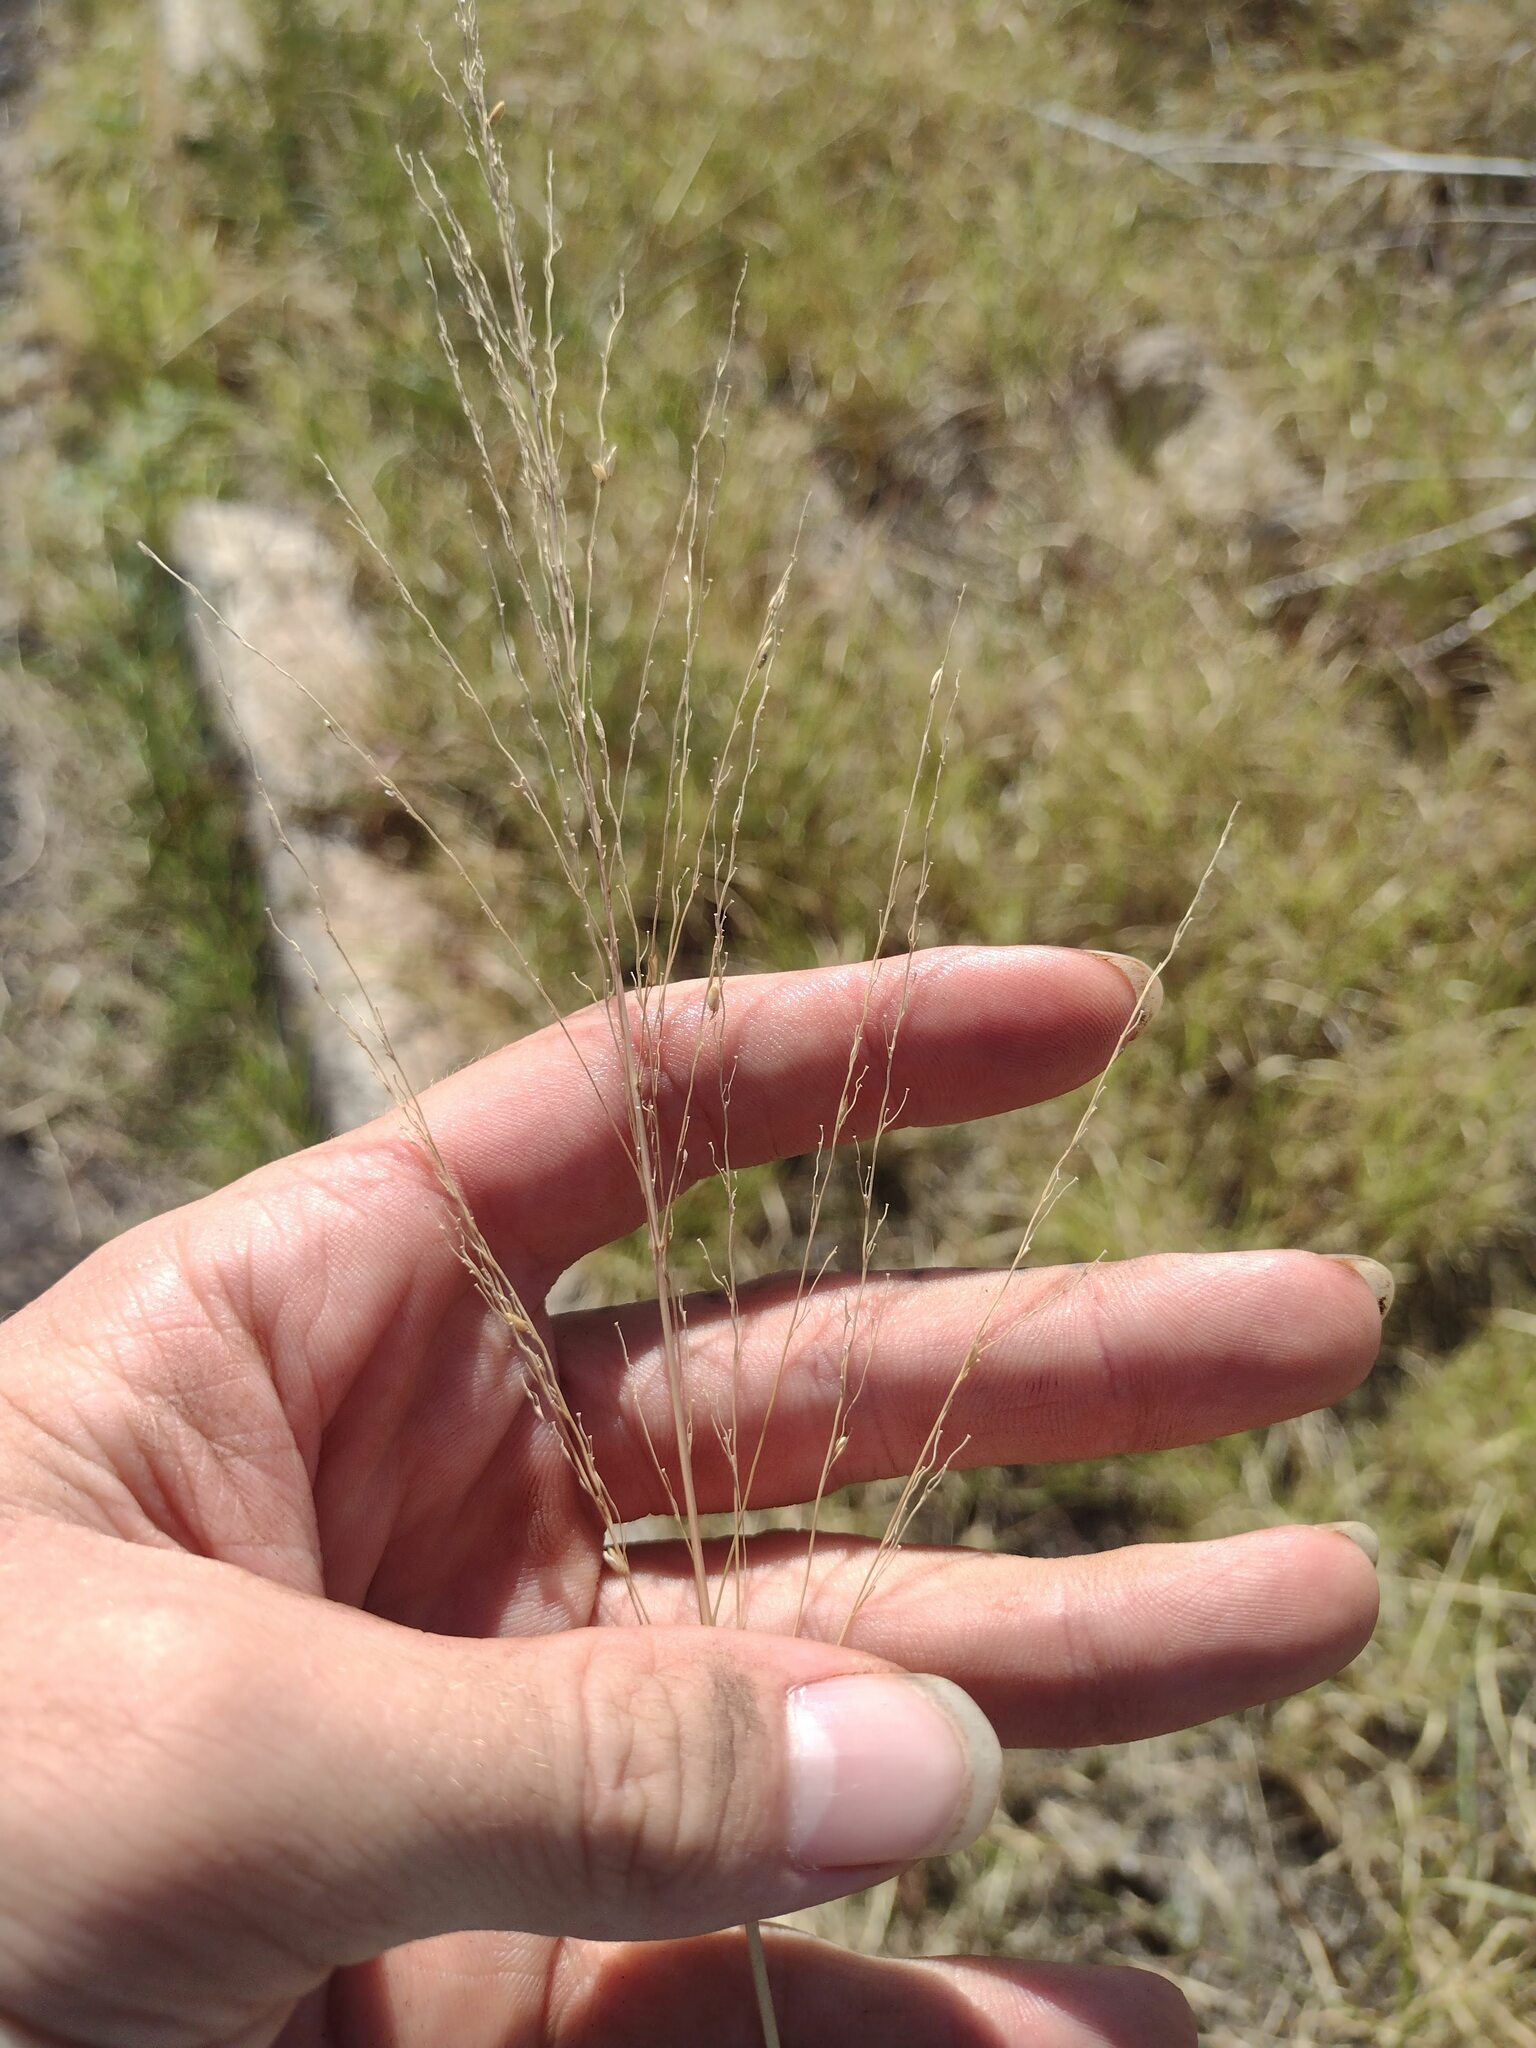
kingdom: Plantae
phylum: Tracheophyta
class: Liliopsida
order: Poales
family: Poaceae
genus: Megathyrsus
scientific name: Megathyrsus maximus
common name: Guineagrass
